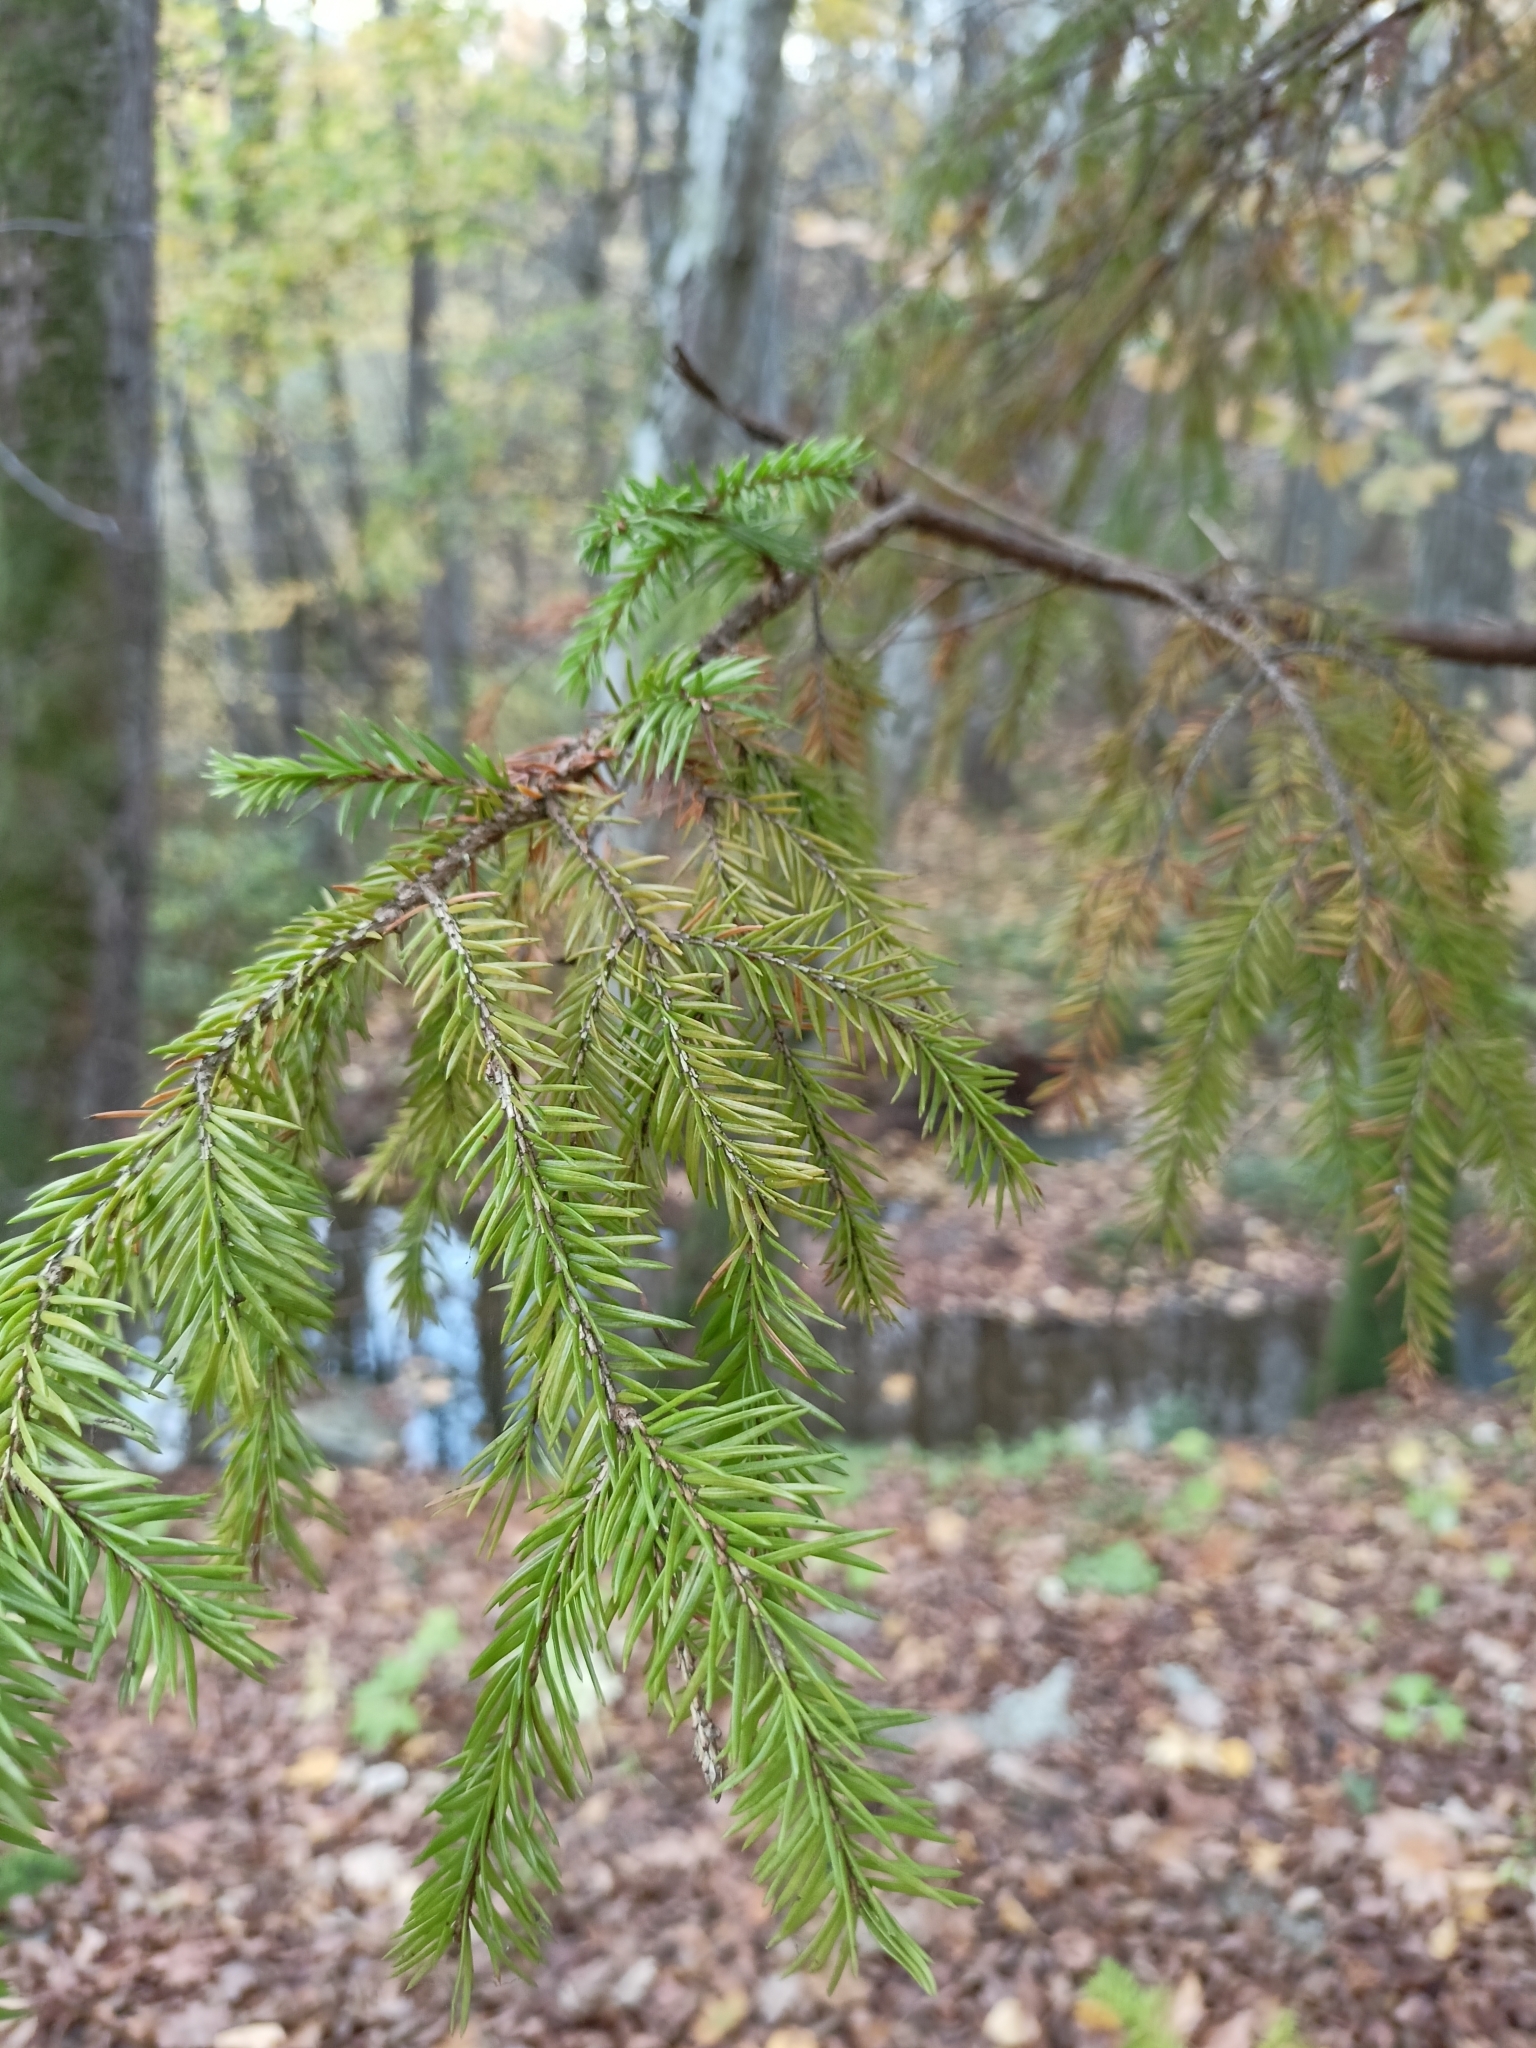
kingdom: Plantae
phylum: Tracheophyta
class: Pinopsida
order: Pinales
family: Pinaceae
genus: Picea
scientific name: Picea abies
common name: Norway spruce
